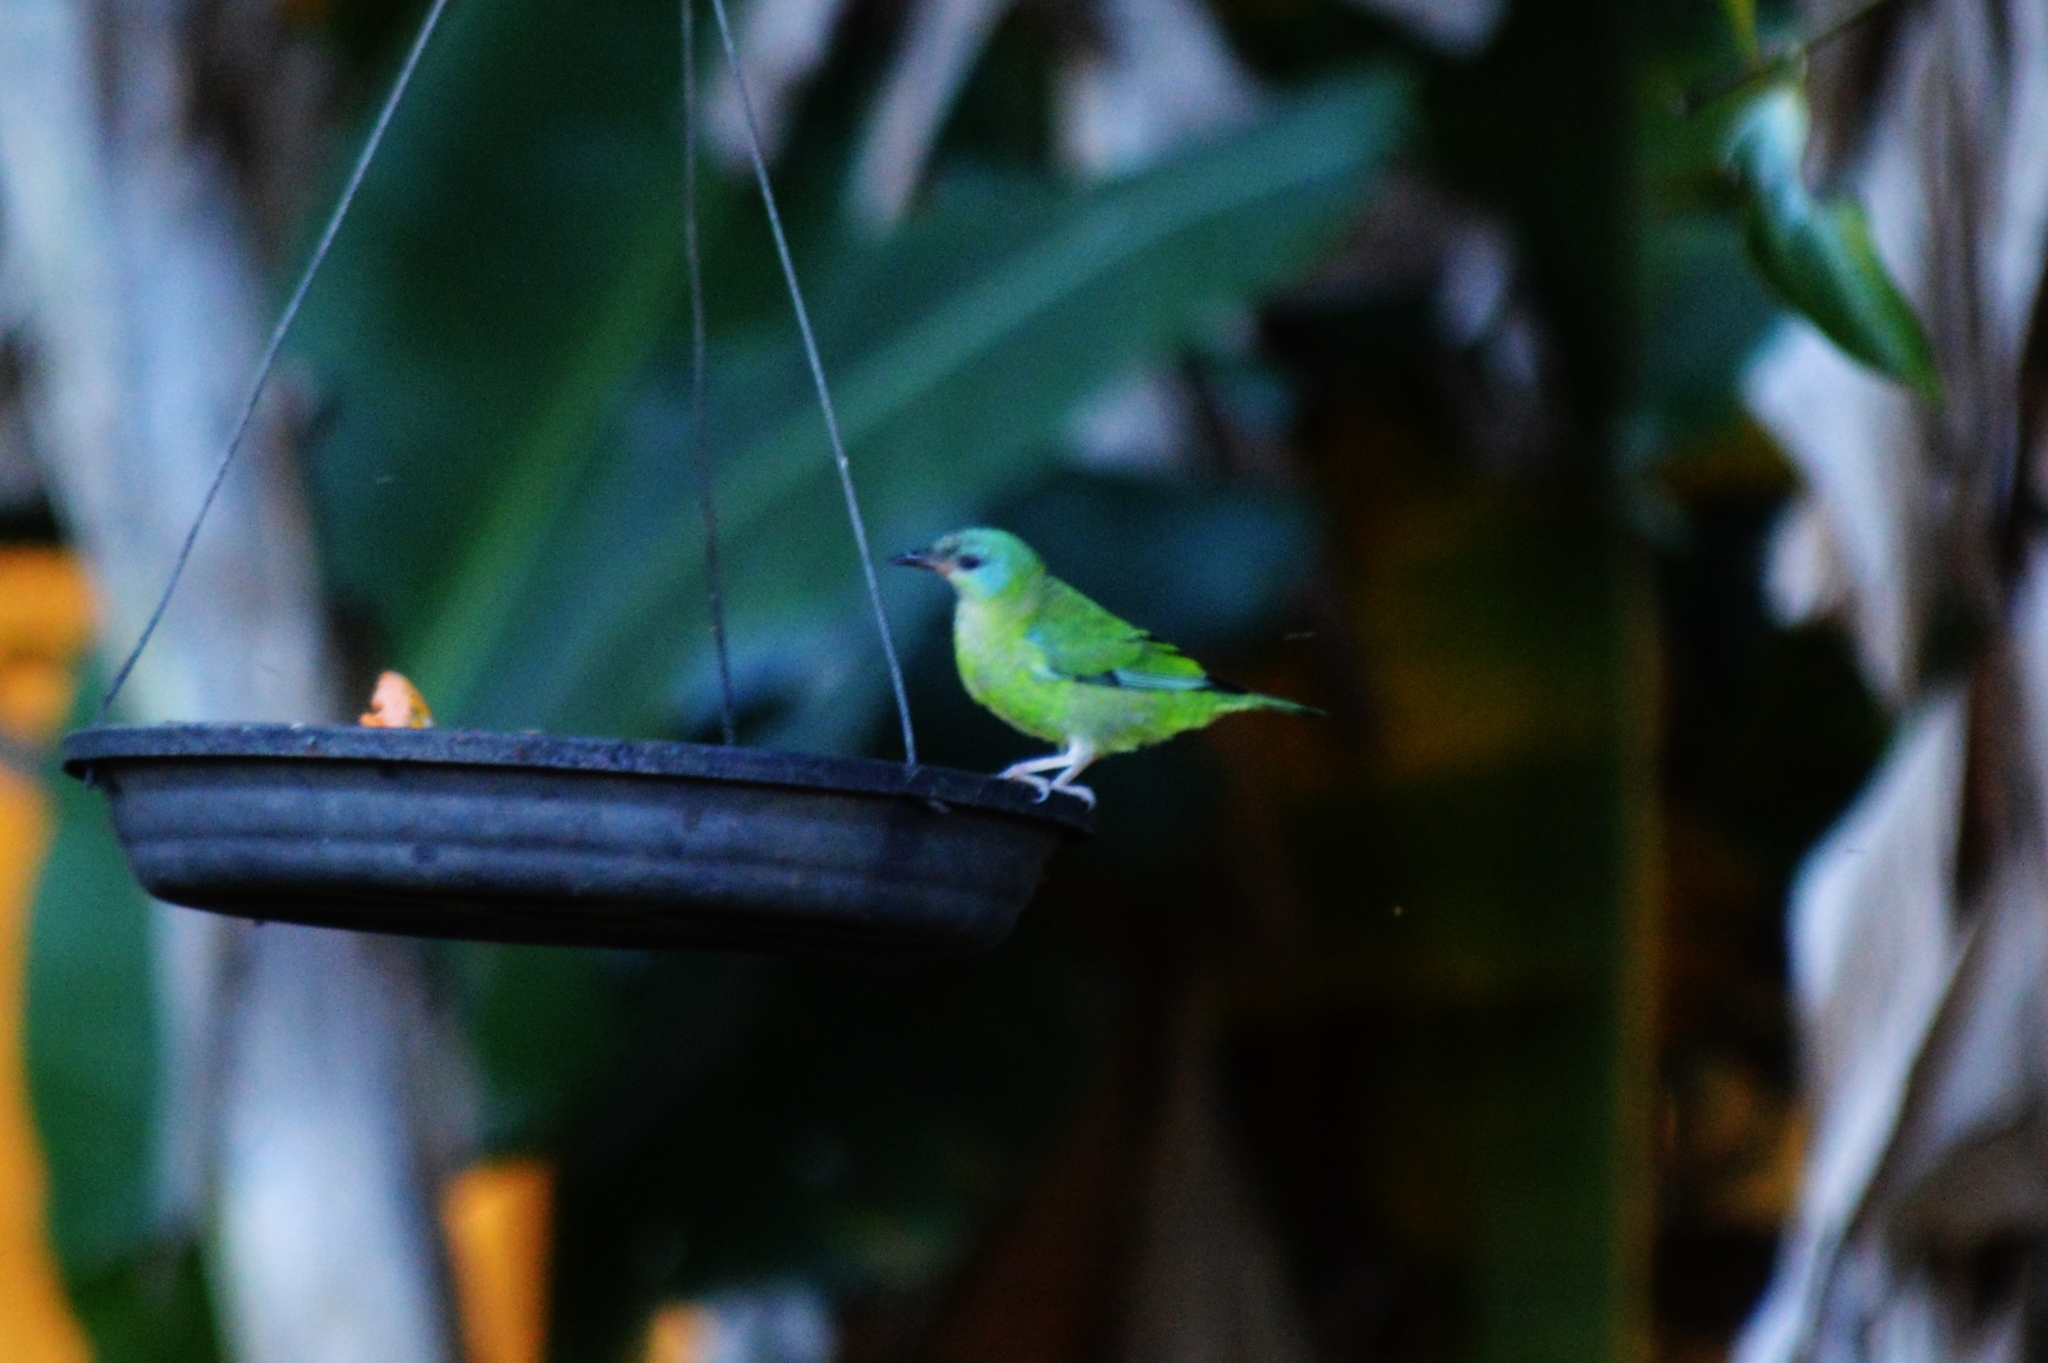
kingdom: Animalia
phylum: Chordata
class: Aves
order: Passeriformes
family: Thraupidae
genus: Dacnis
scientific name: Dacnis cayana
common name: Blue dacnis
